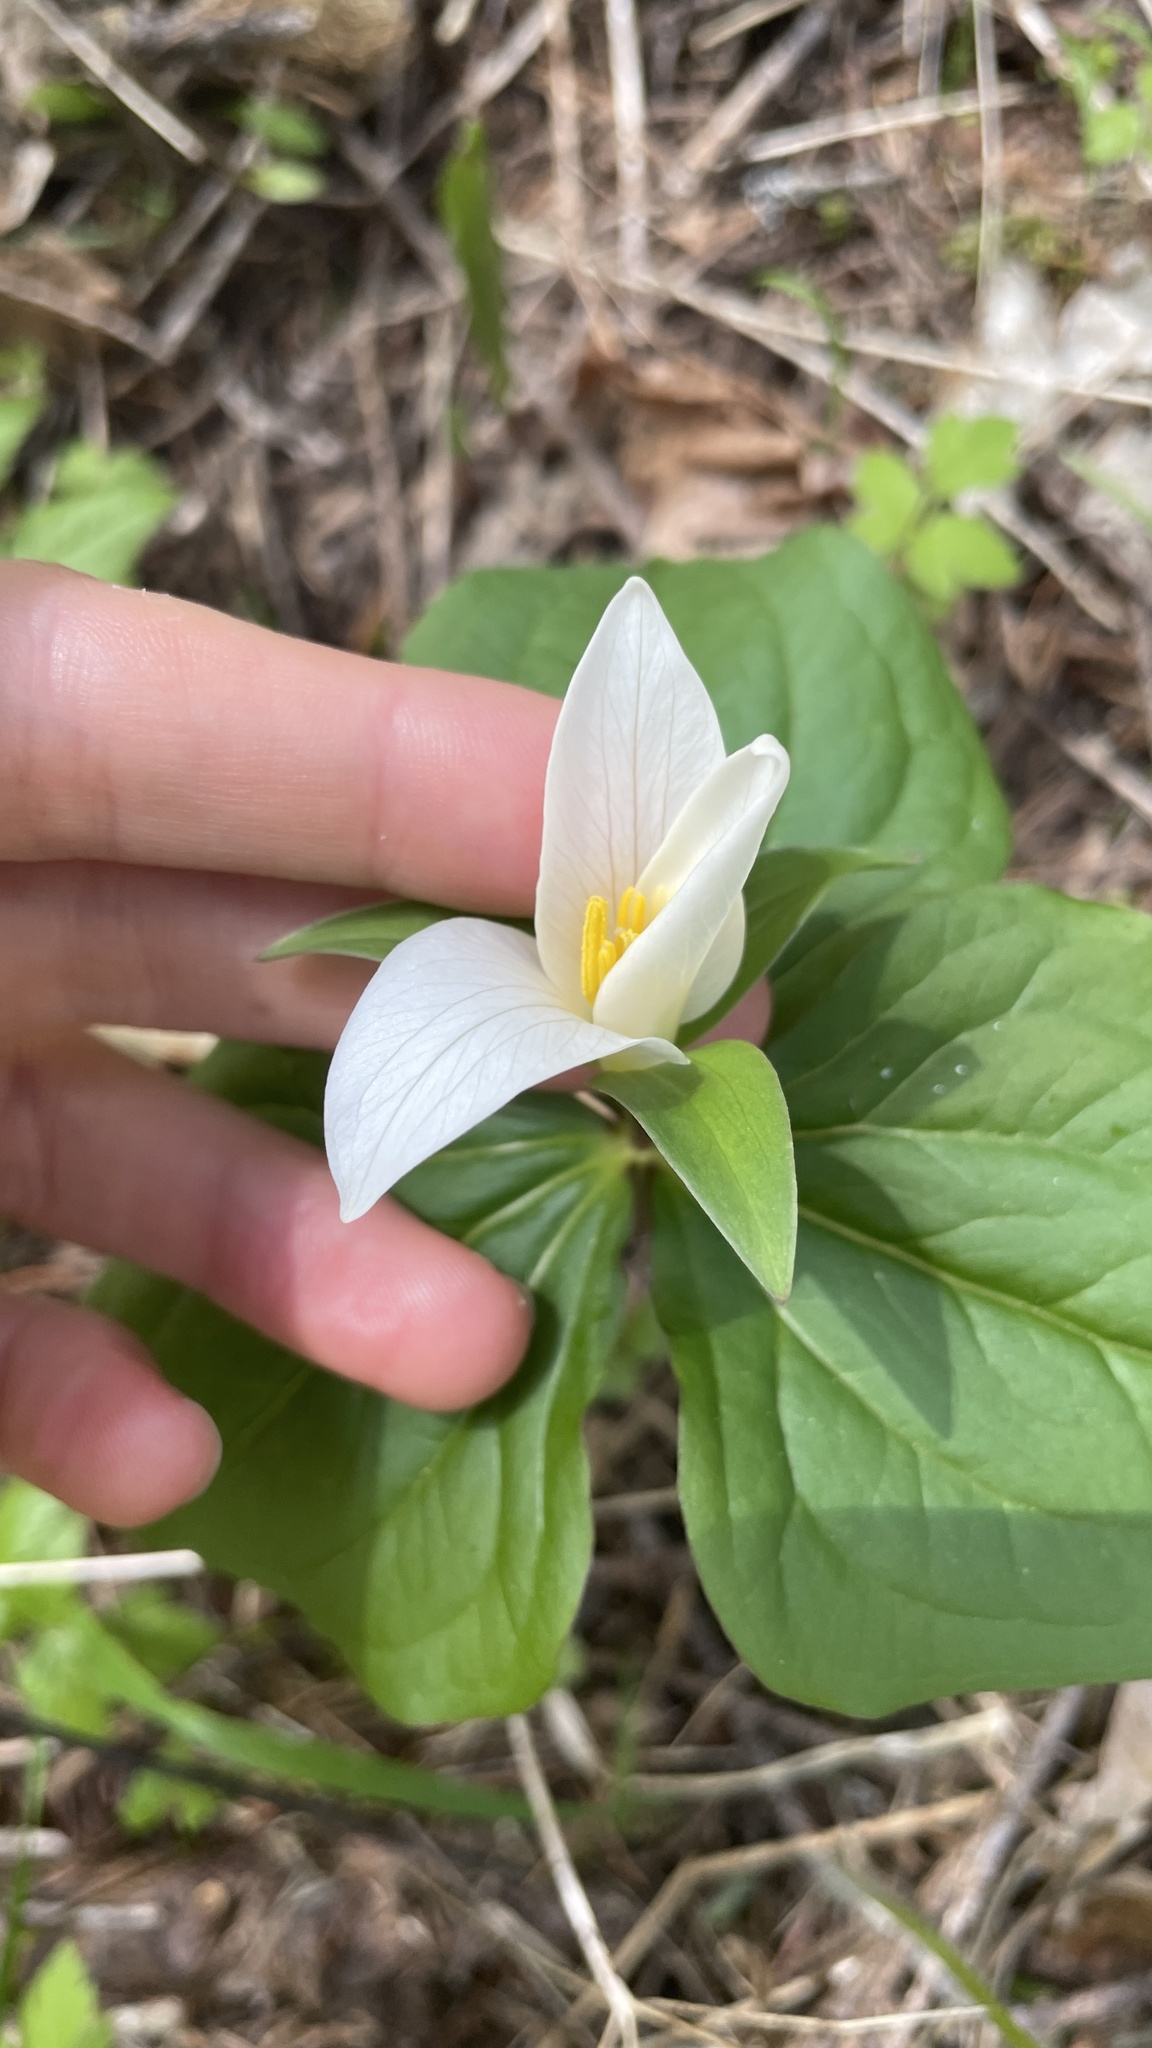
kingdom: Plantae
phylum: Tracheophyta
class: Liliopsida
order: Liliales
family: Melanthiaceae
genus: Trillium
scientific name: Trillium ovatum
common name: Pacific trillium
